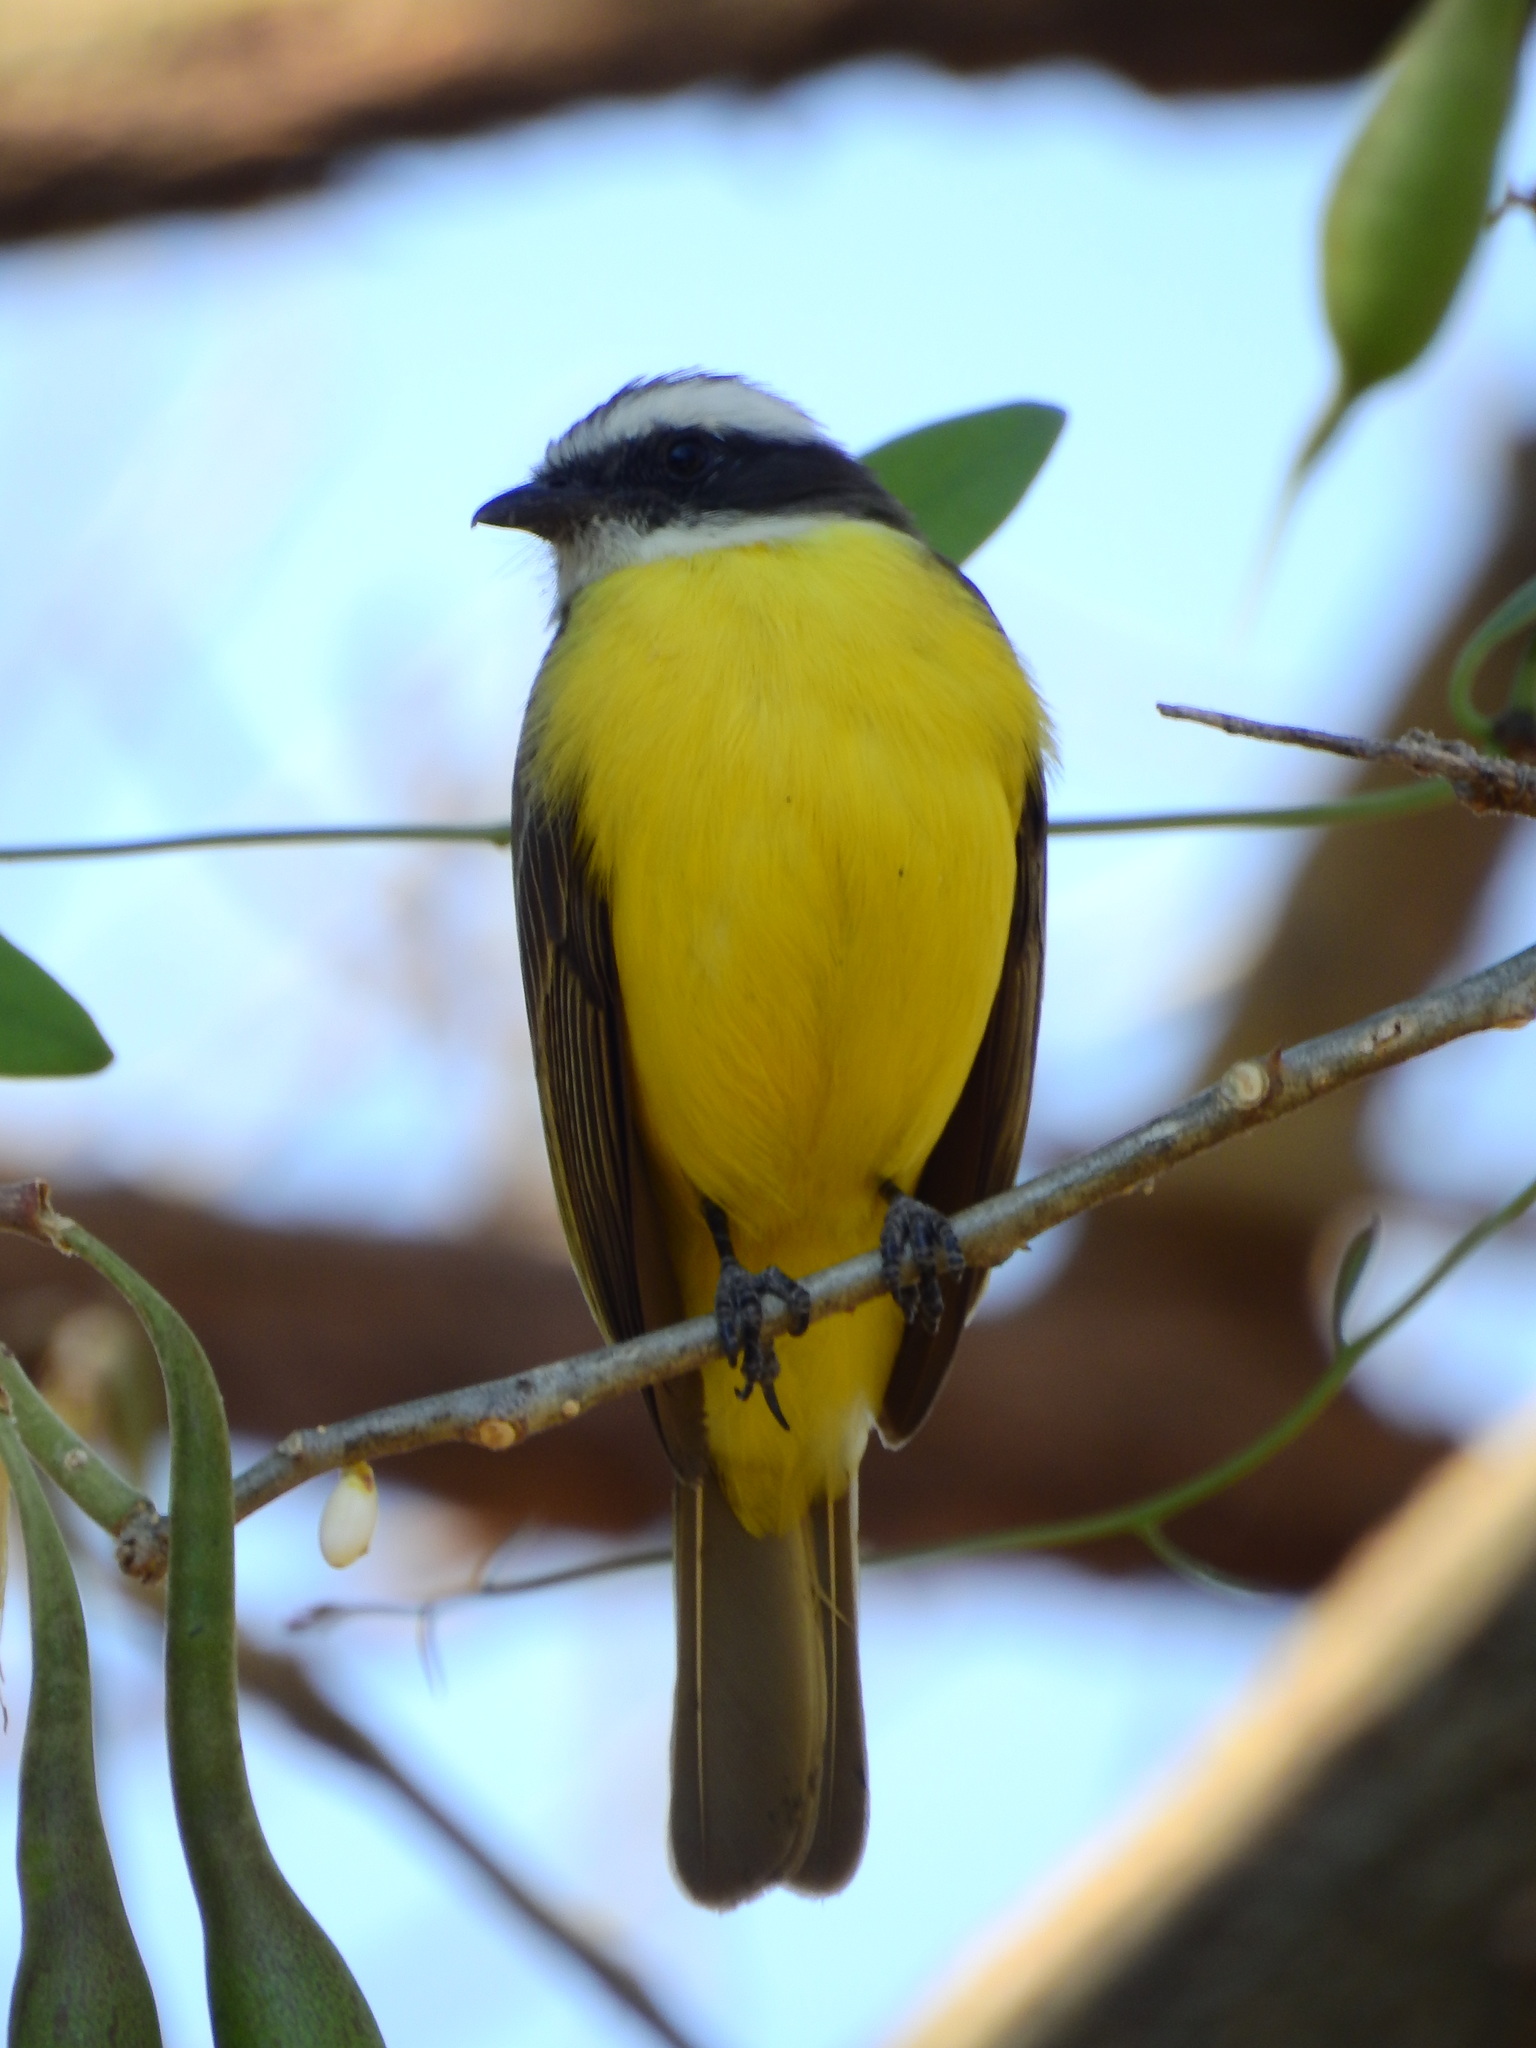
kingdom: Animalia
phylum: Chordata
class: Aves
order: Passeriformes
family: Tyrannidae
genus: Myiozetetes
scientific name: Myiozetetes similis
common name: Social flycatcher
